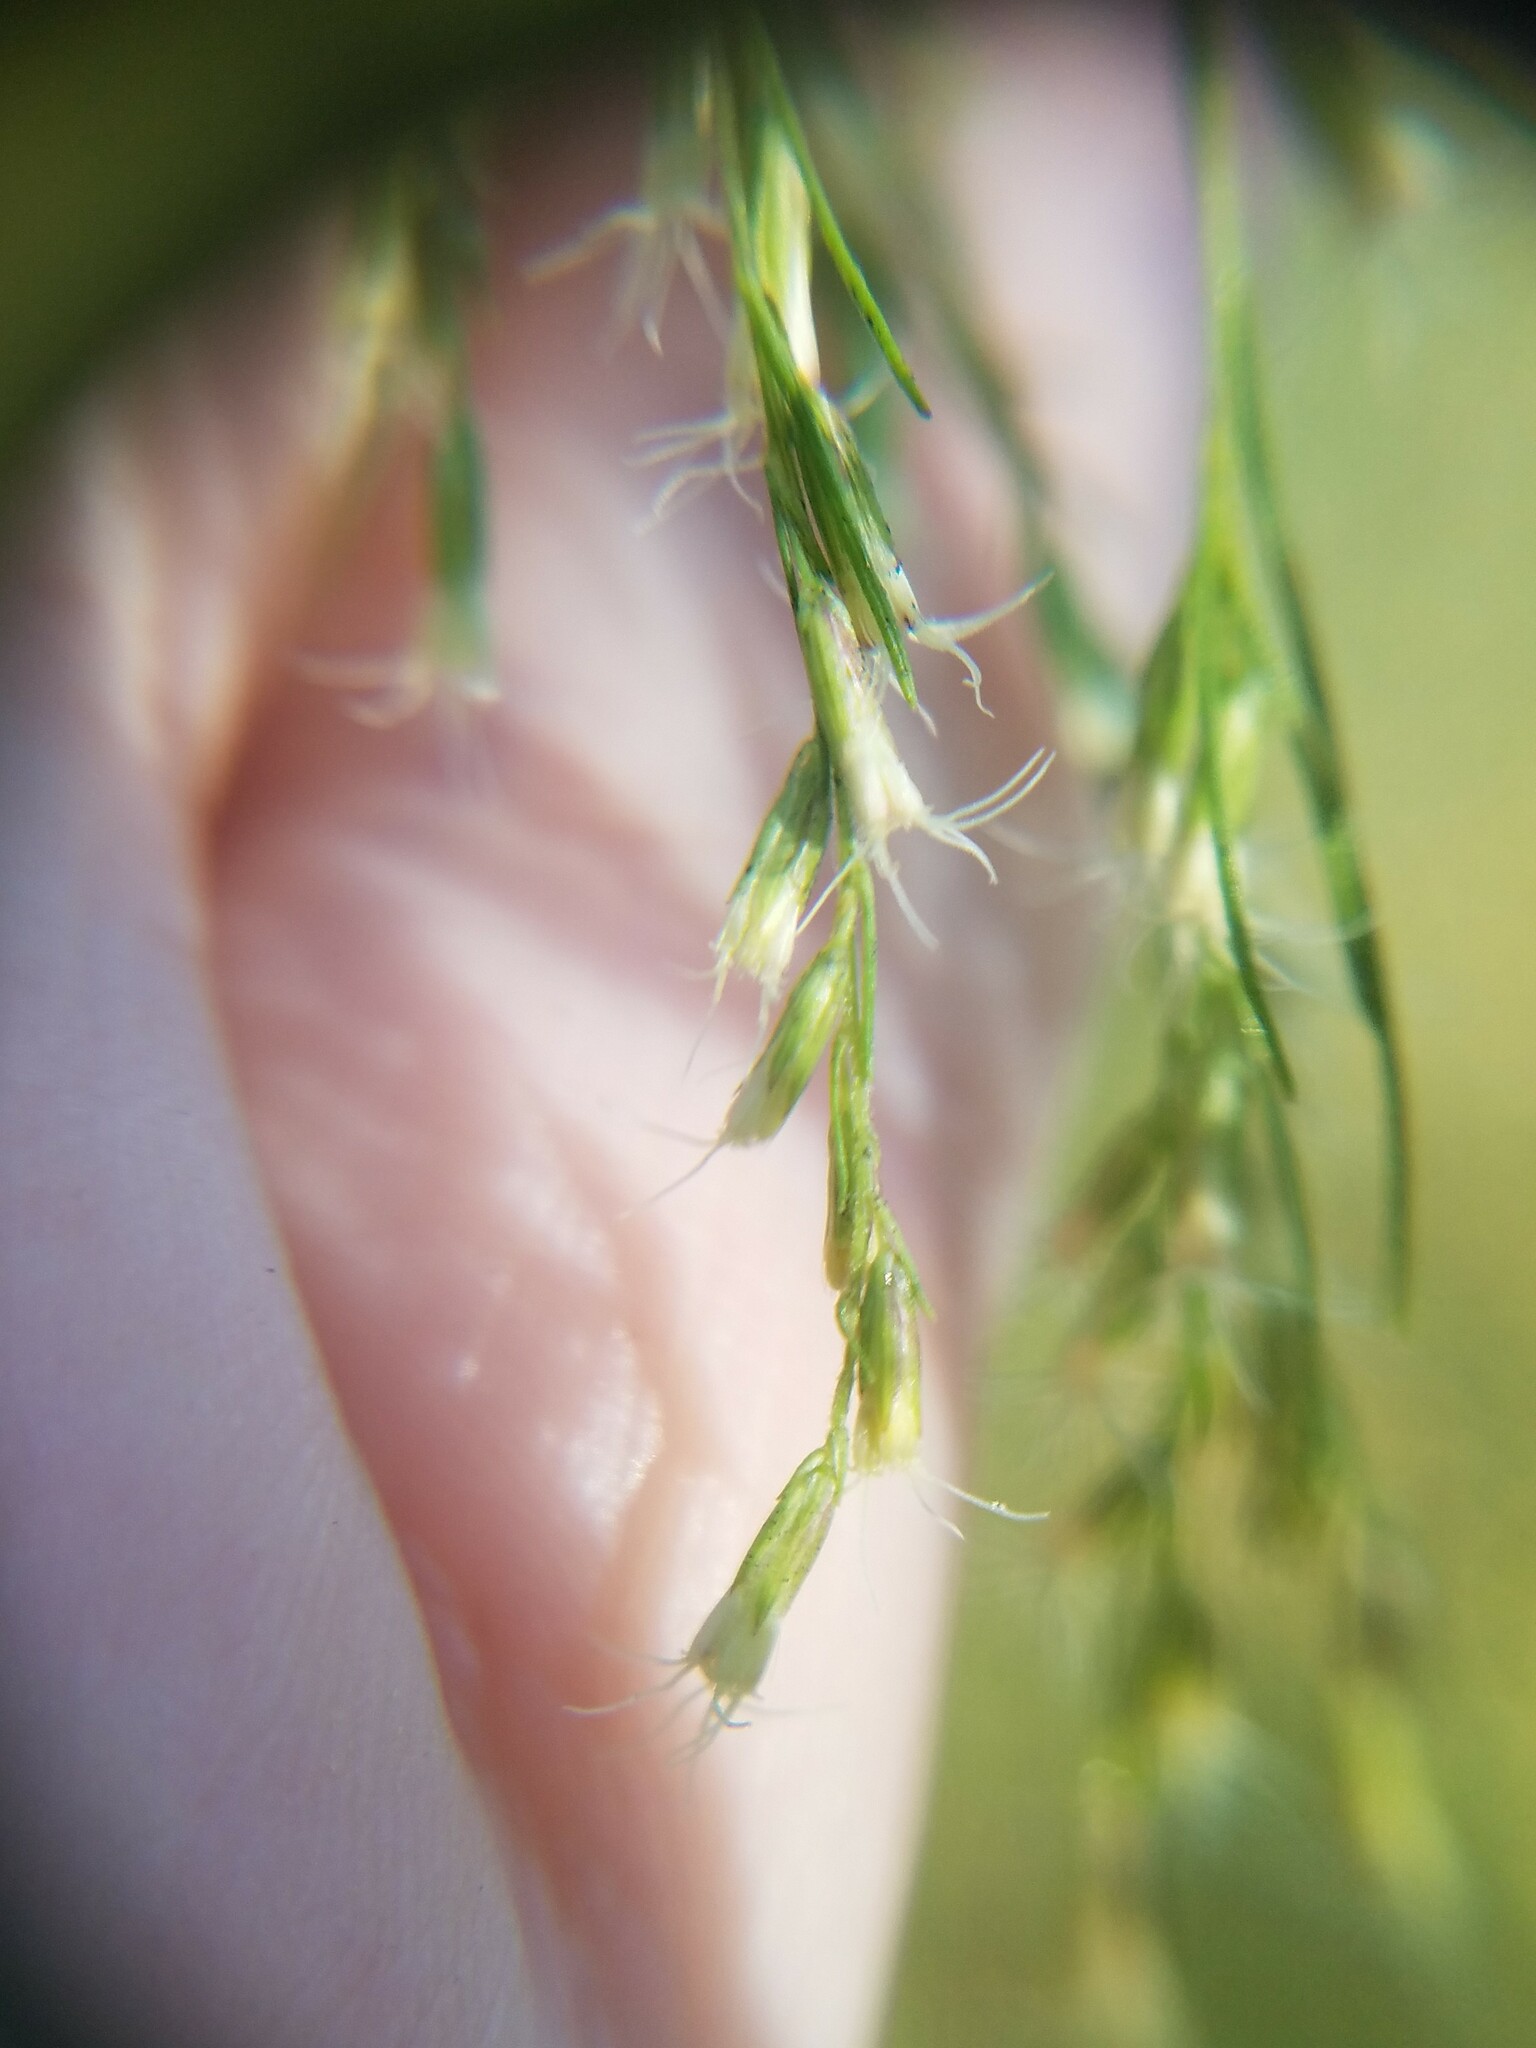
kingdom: Plantae
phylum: Tracheophyta
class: Magnoliopsida
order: Asterales
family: Asteraceae
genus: Eupatorium
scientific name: Eupatorium capillifolium
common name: Dog-fennel
